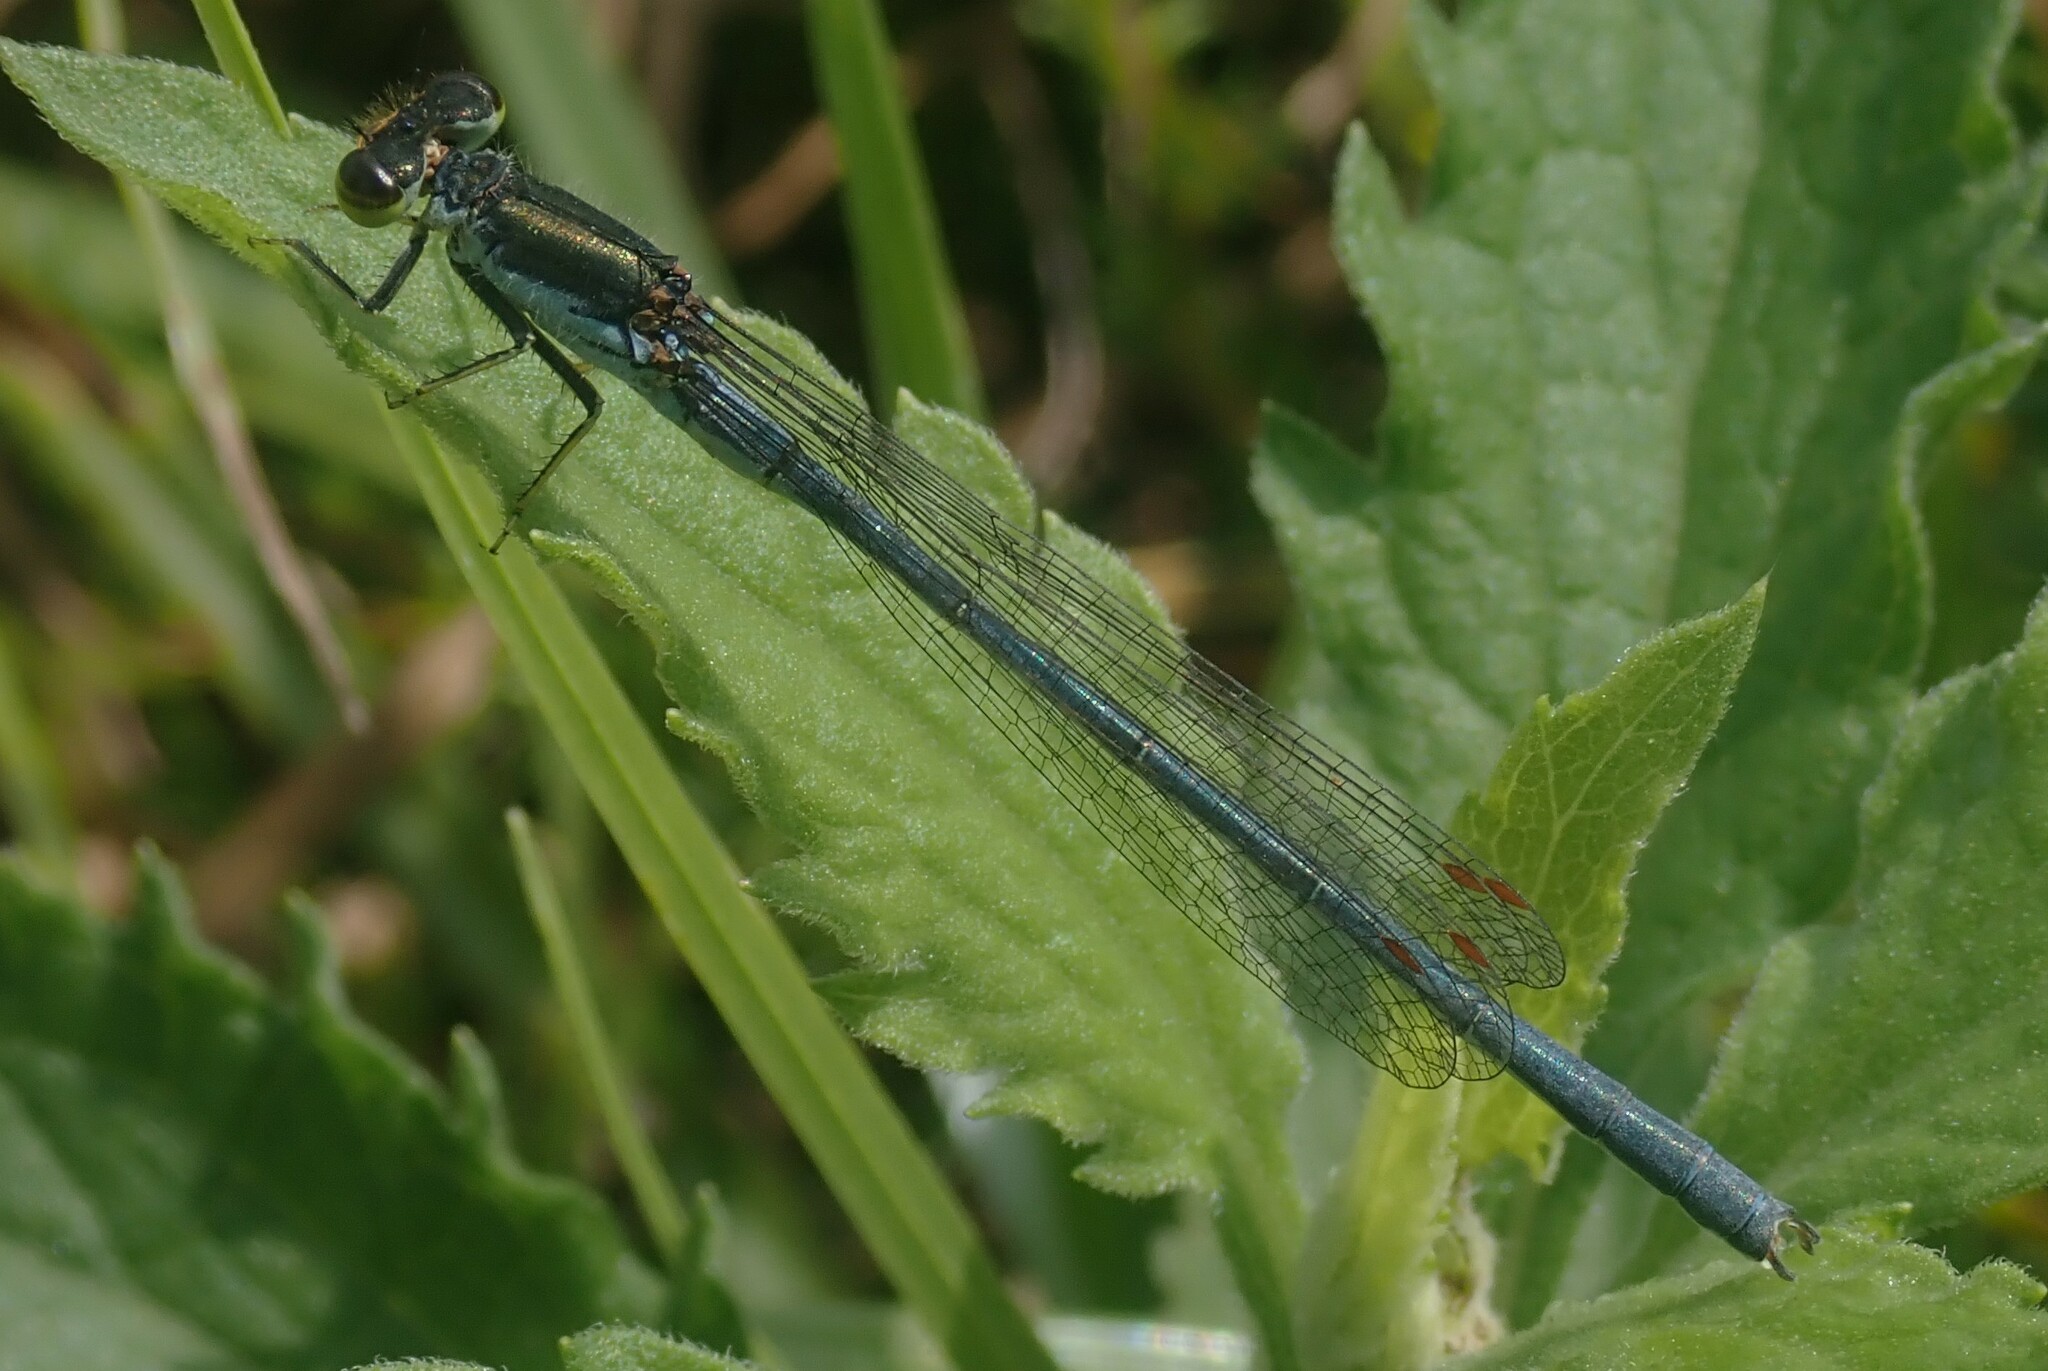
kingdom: Animalia
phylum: Arthropoda
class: Insecta
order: Odonata
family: Coenagrionidae
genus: Pseudagrion
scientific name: Pseudagrion caffrum
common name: Springwater sprite
